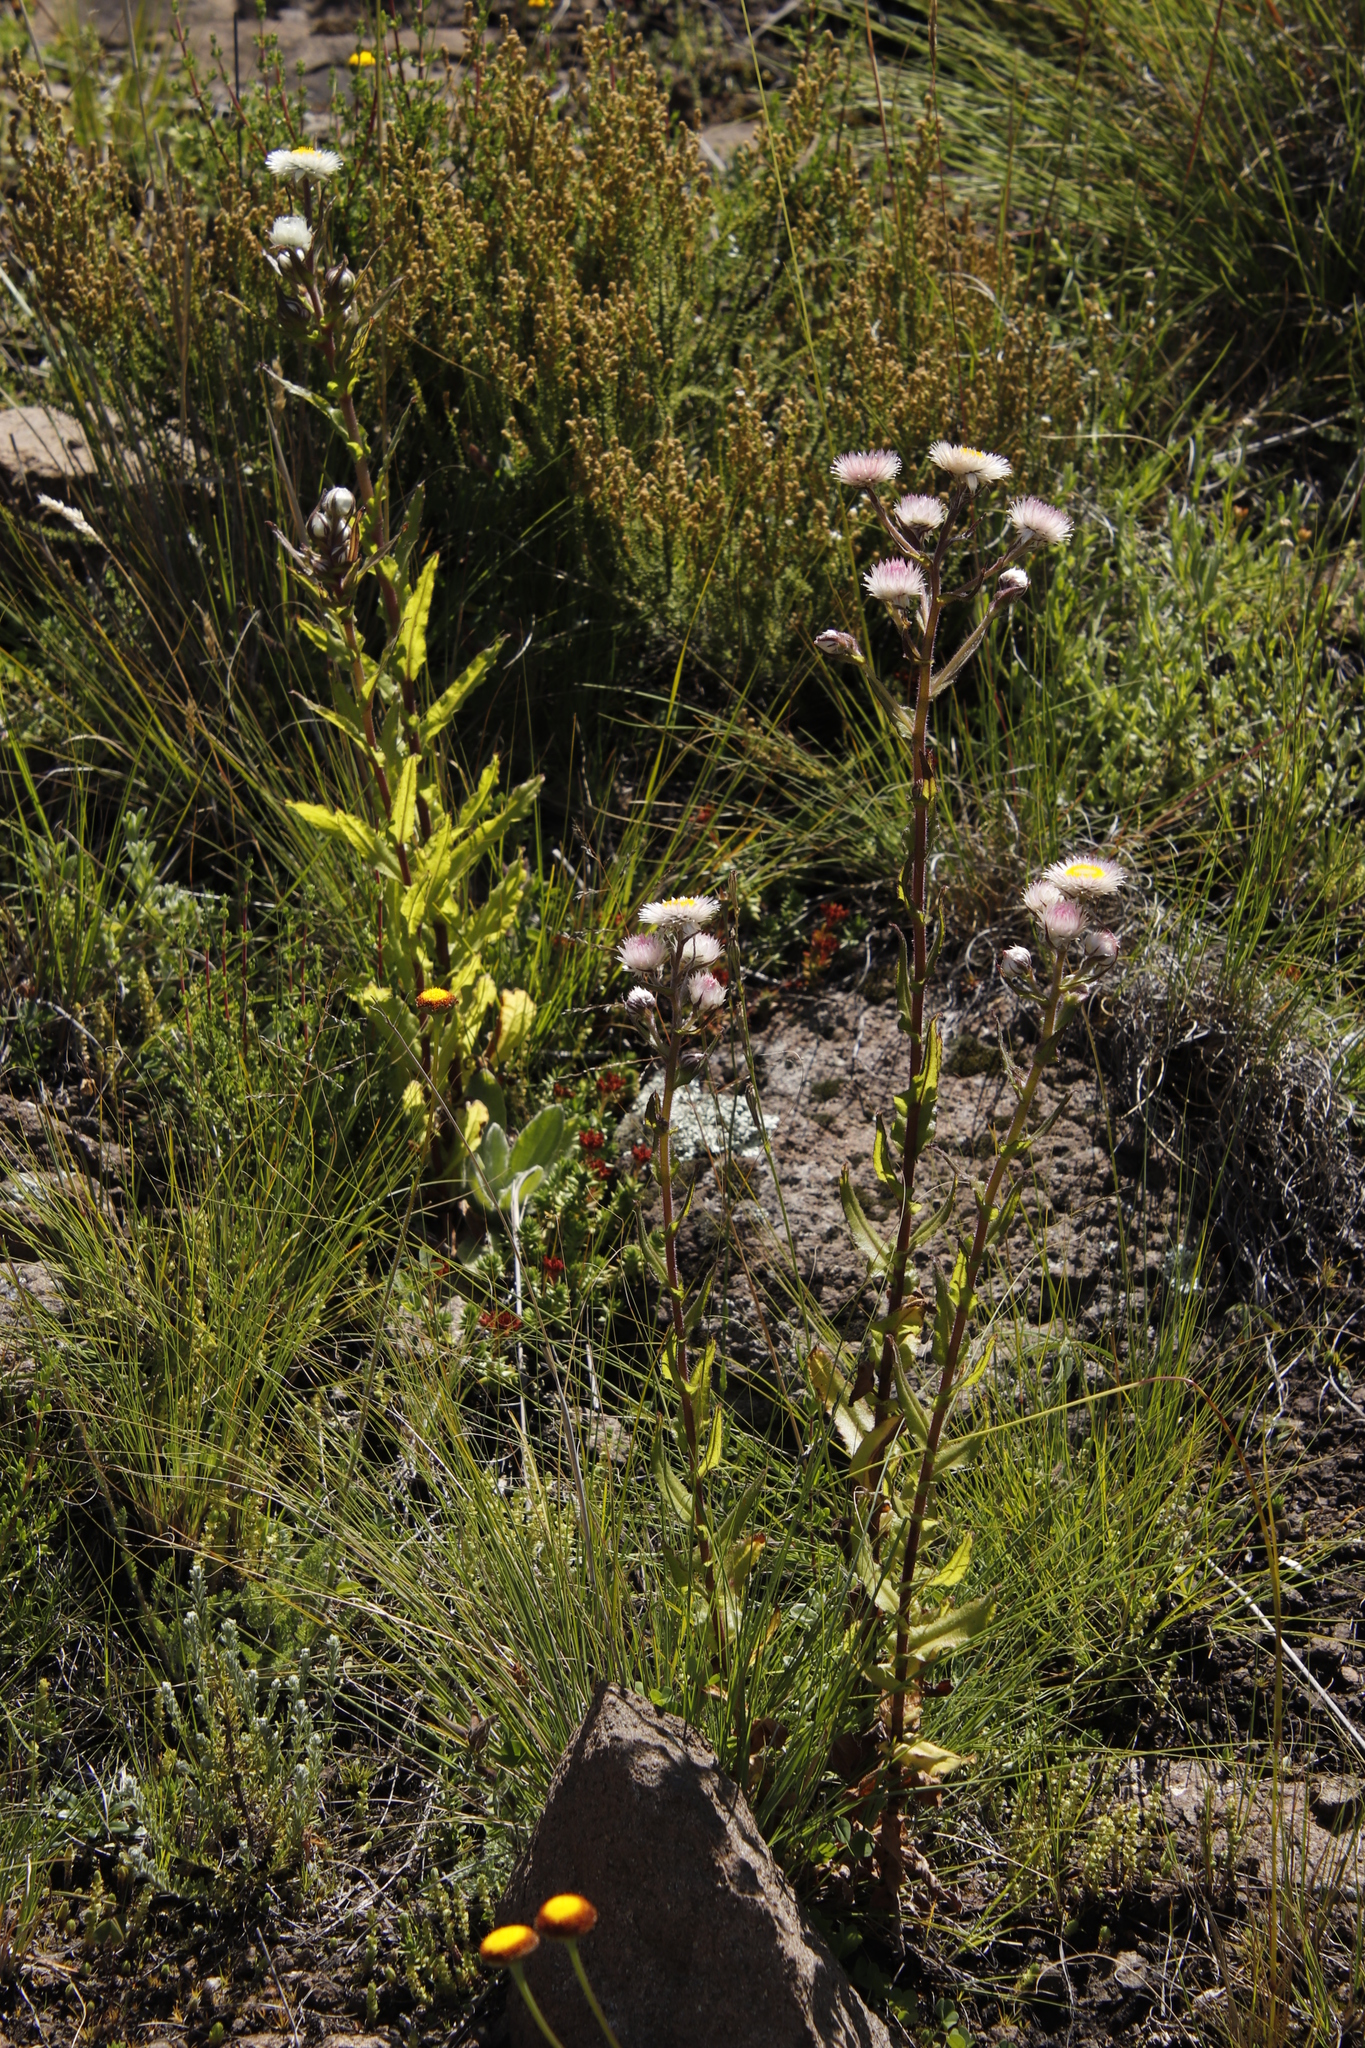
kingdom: Plantae
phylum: Tracheophyta
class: Magnoliopsida
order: Asterales
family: Asteraceae
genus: Helichrysum
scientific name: Helichrysum elegantissimum
